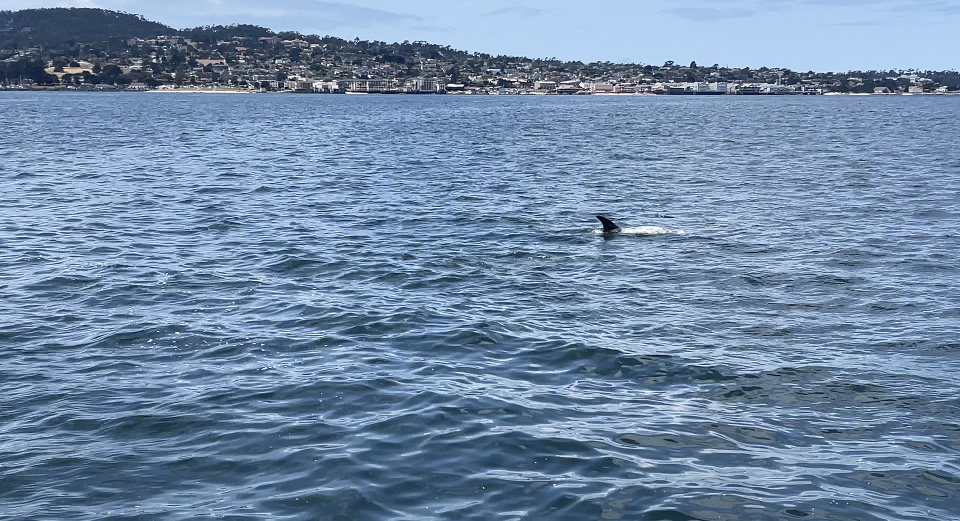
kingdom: Animalia
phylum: Chordata
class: Mammalia
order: Cetacea
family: Delphinidae
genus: Grampus
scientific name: Grampus griseus
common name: Risso's dolphin
